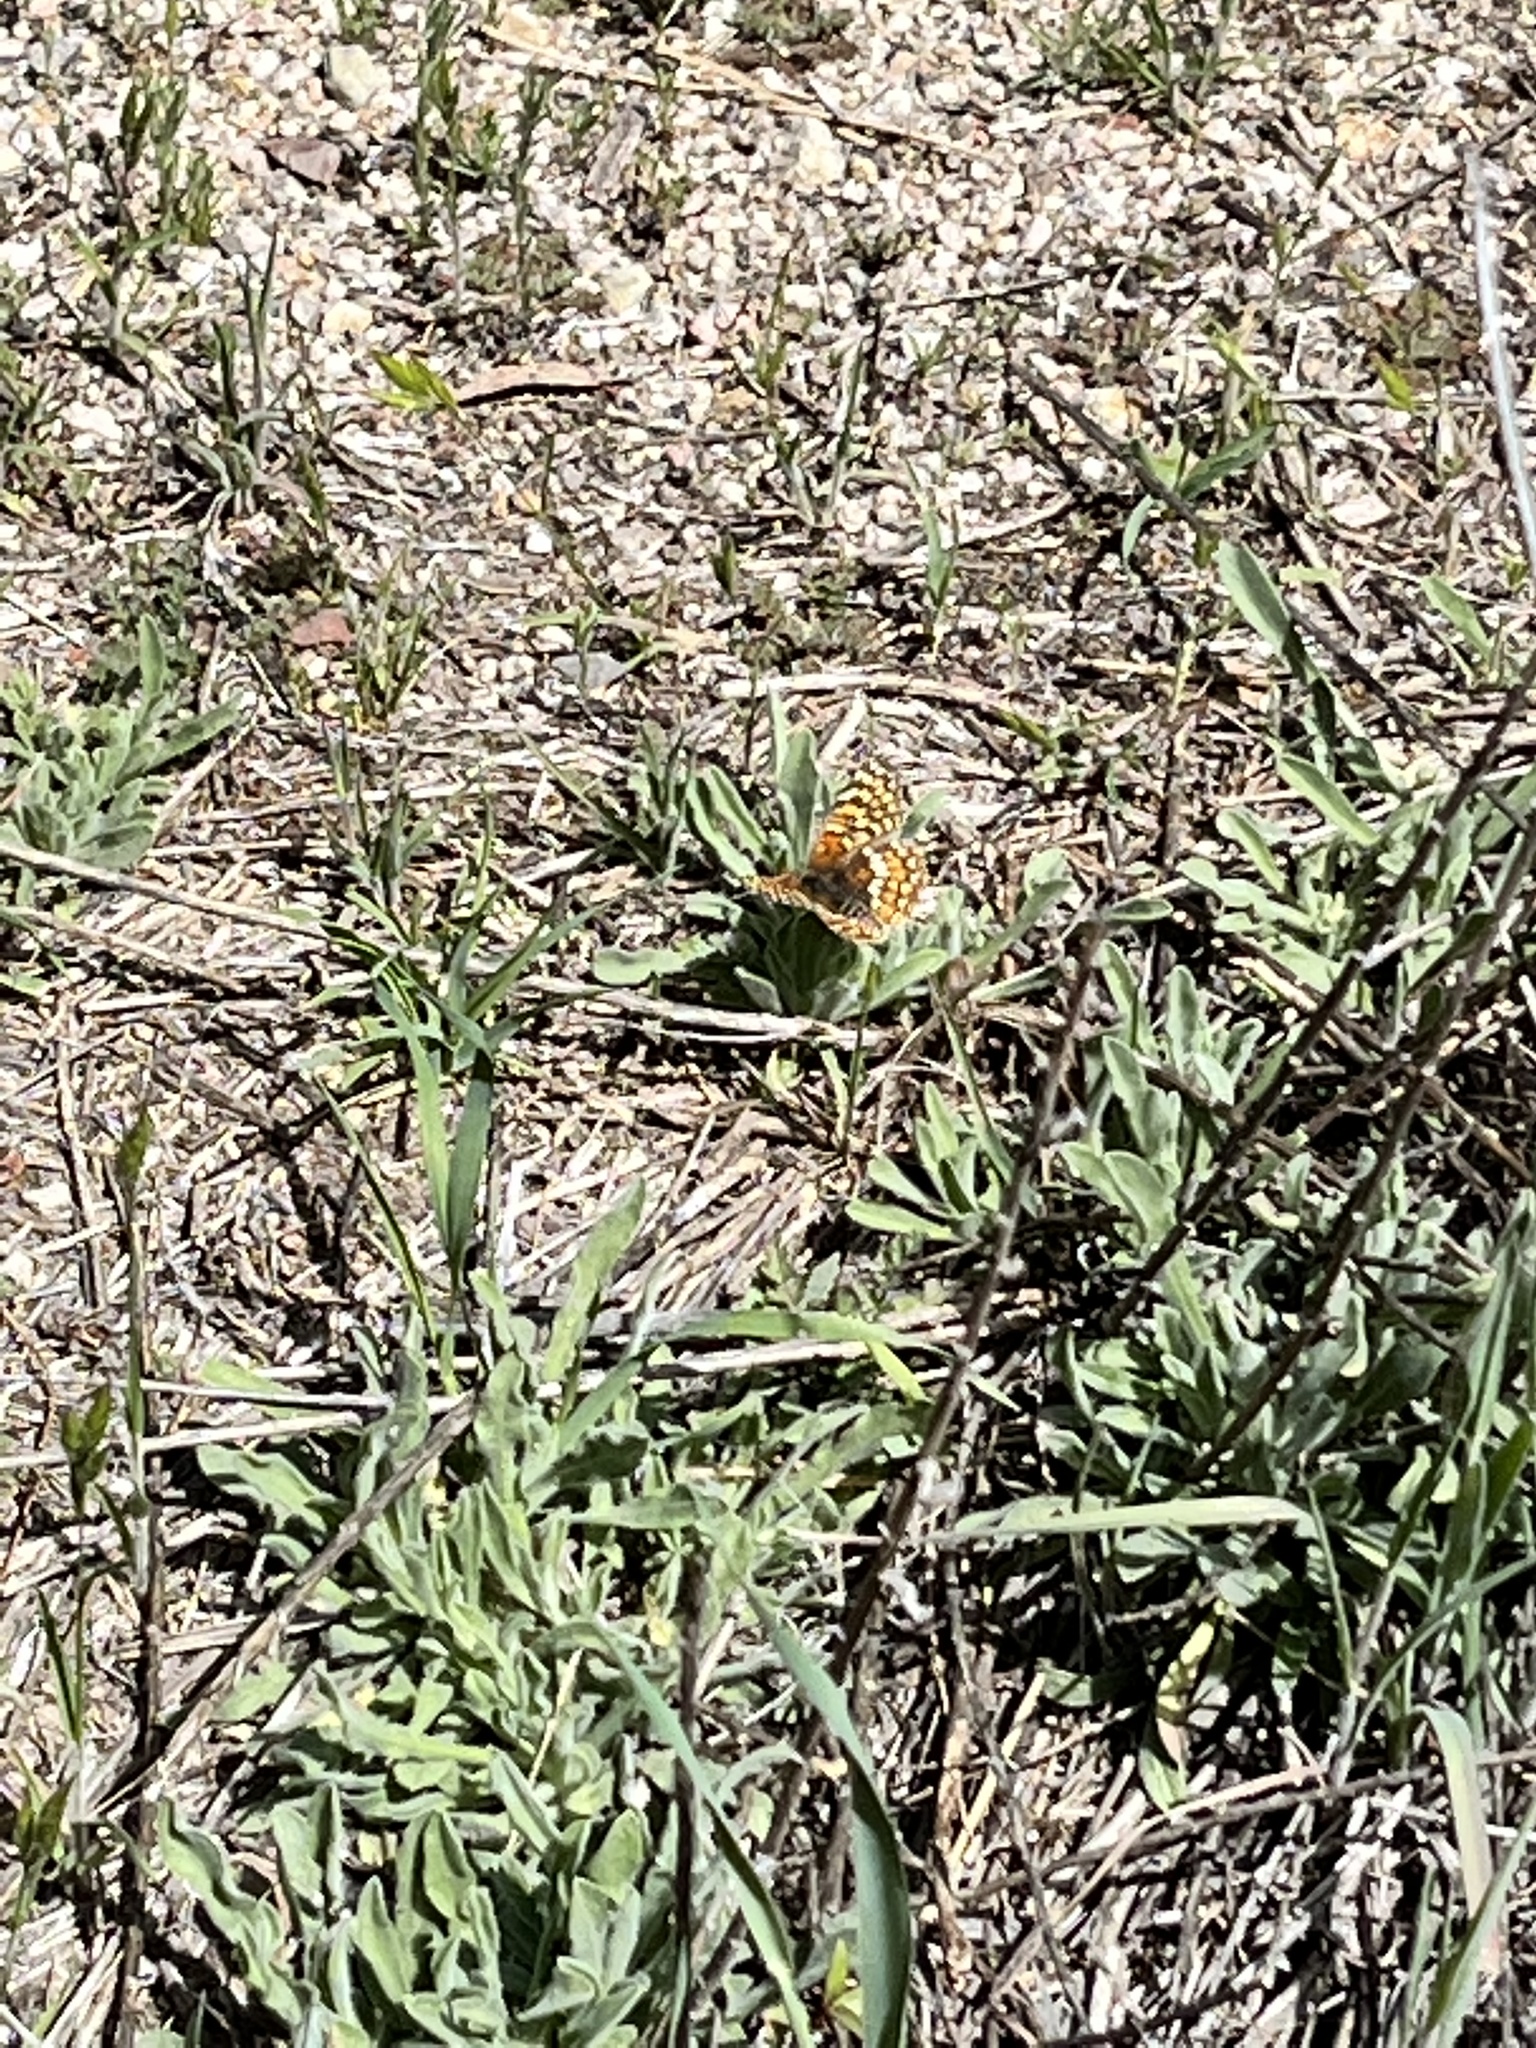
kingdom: Animalia
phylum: Arthropoda
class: Insecta
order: Lepidoptera
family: Nymphalidae
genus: Chlosyne
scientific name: Chlosyne gabbii
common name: Gabb's checkerspot
